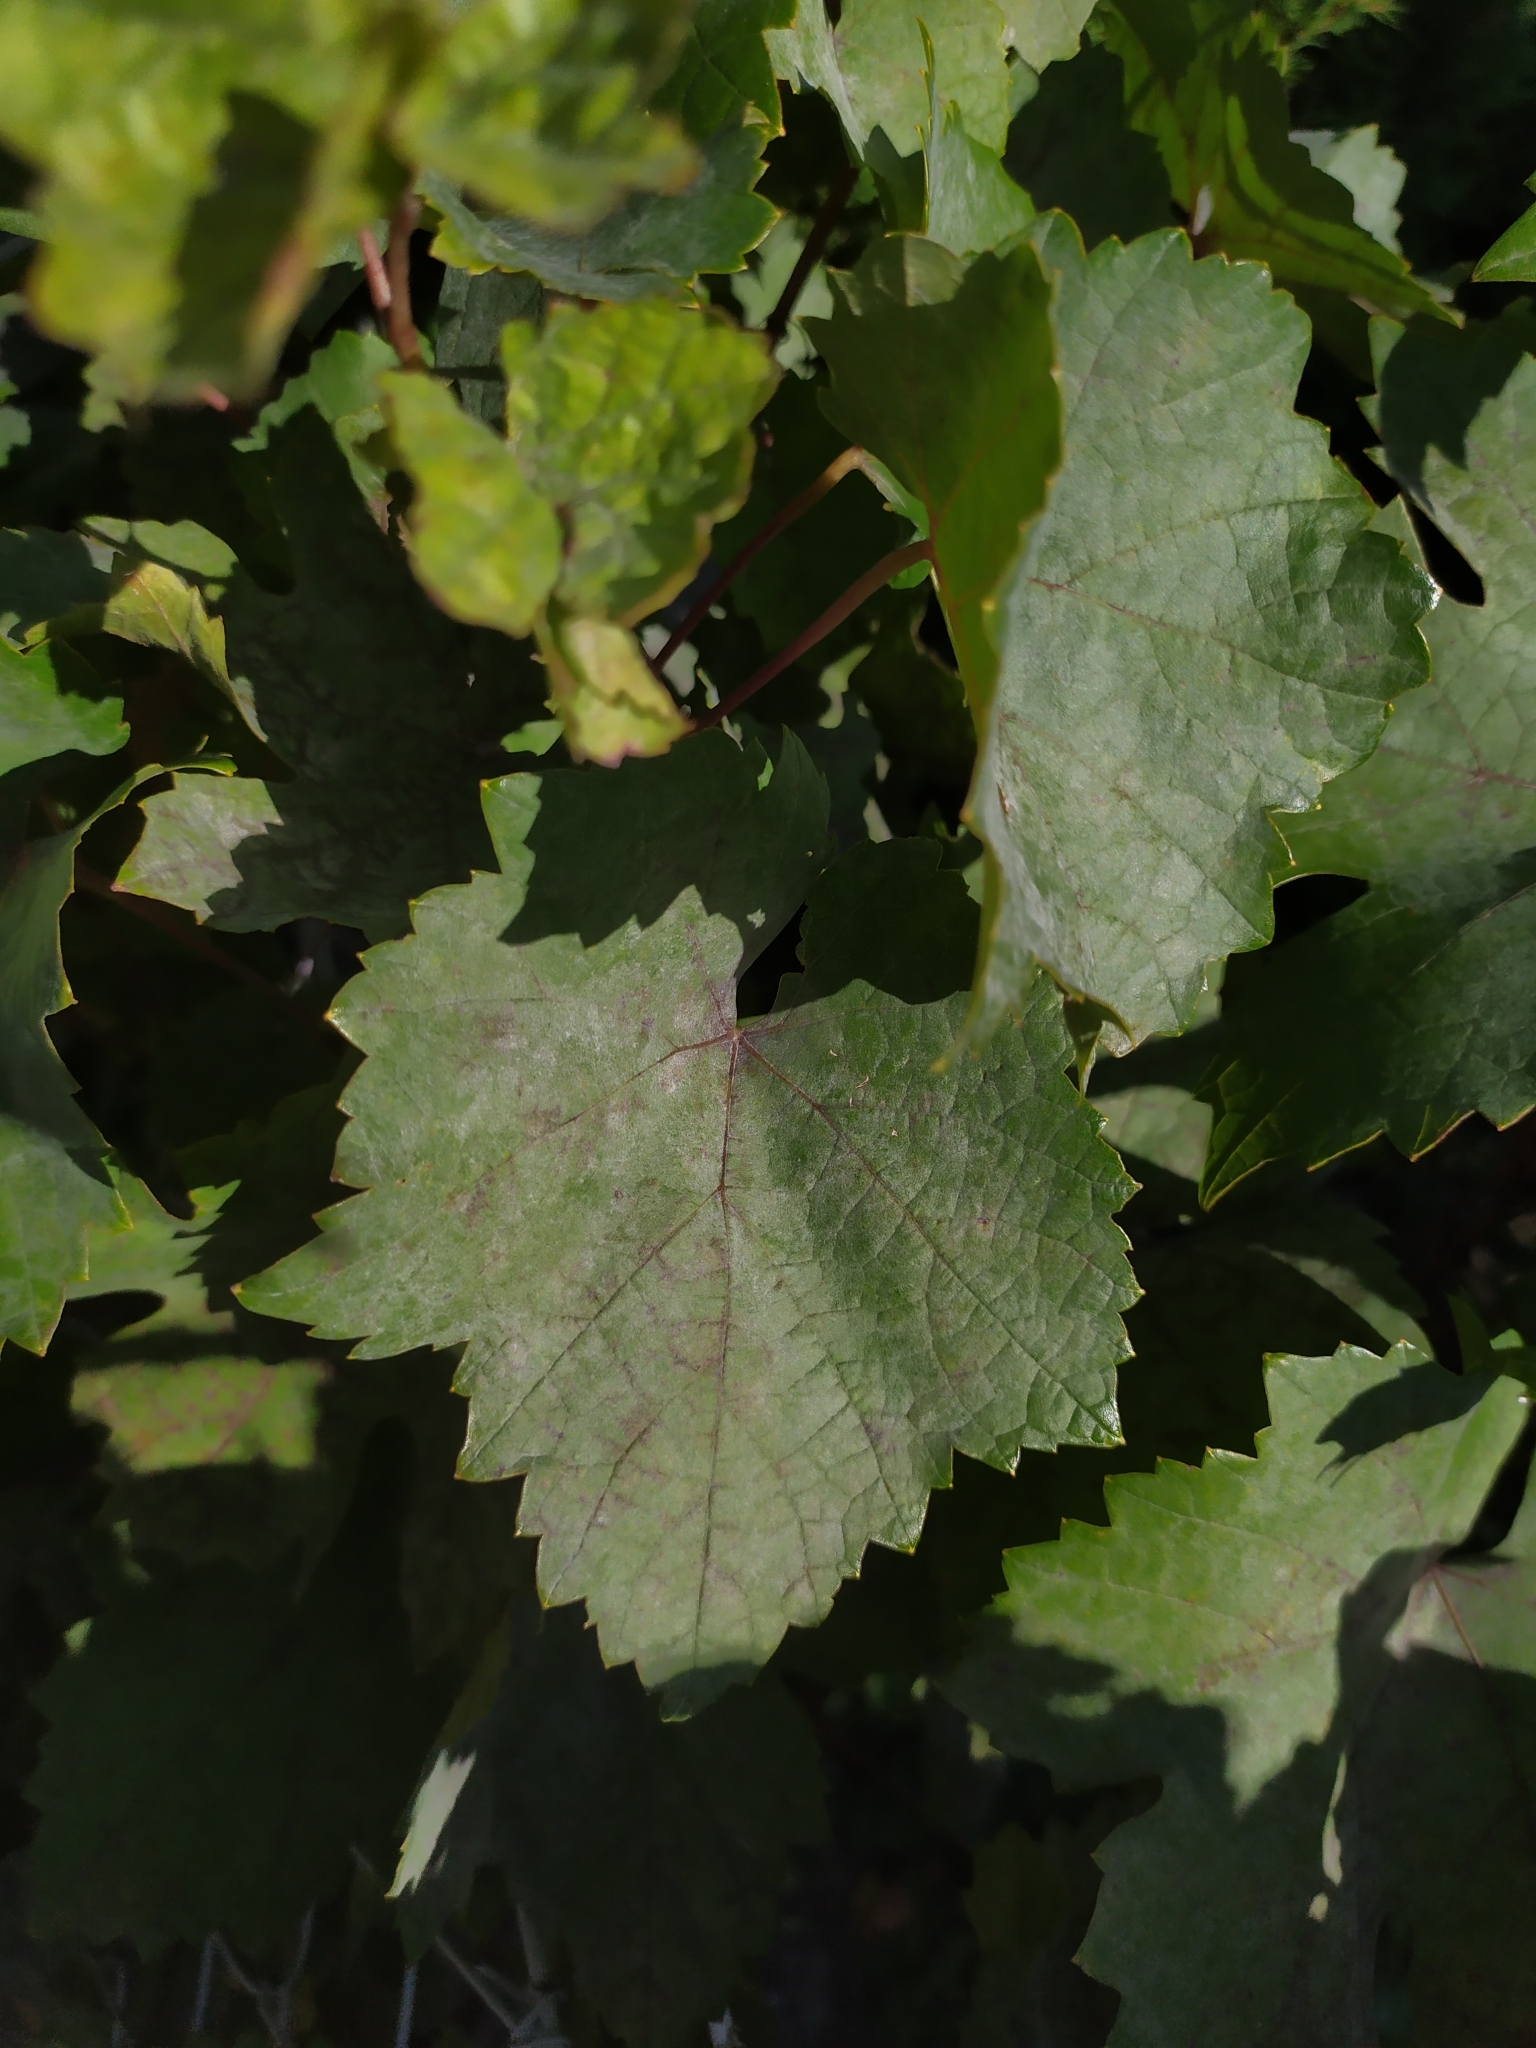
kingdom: Fungi
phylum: Ascomycota
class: Leotiomycetes
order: Helotiales
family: Erysiphaceae
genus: Erysiphe
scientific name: Erysiphe necator
